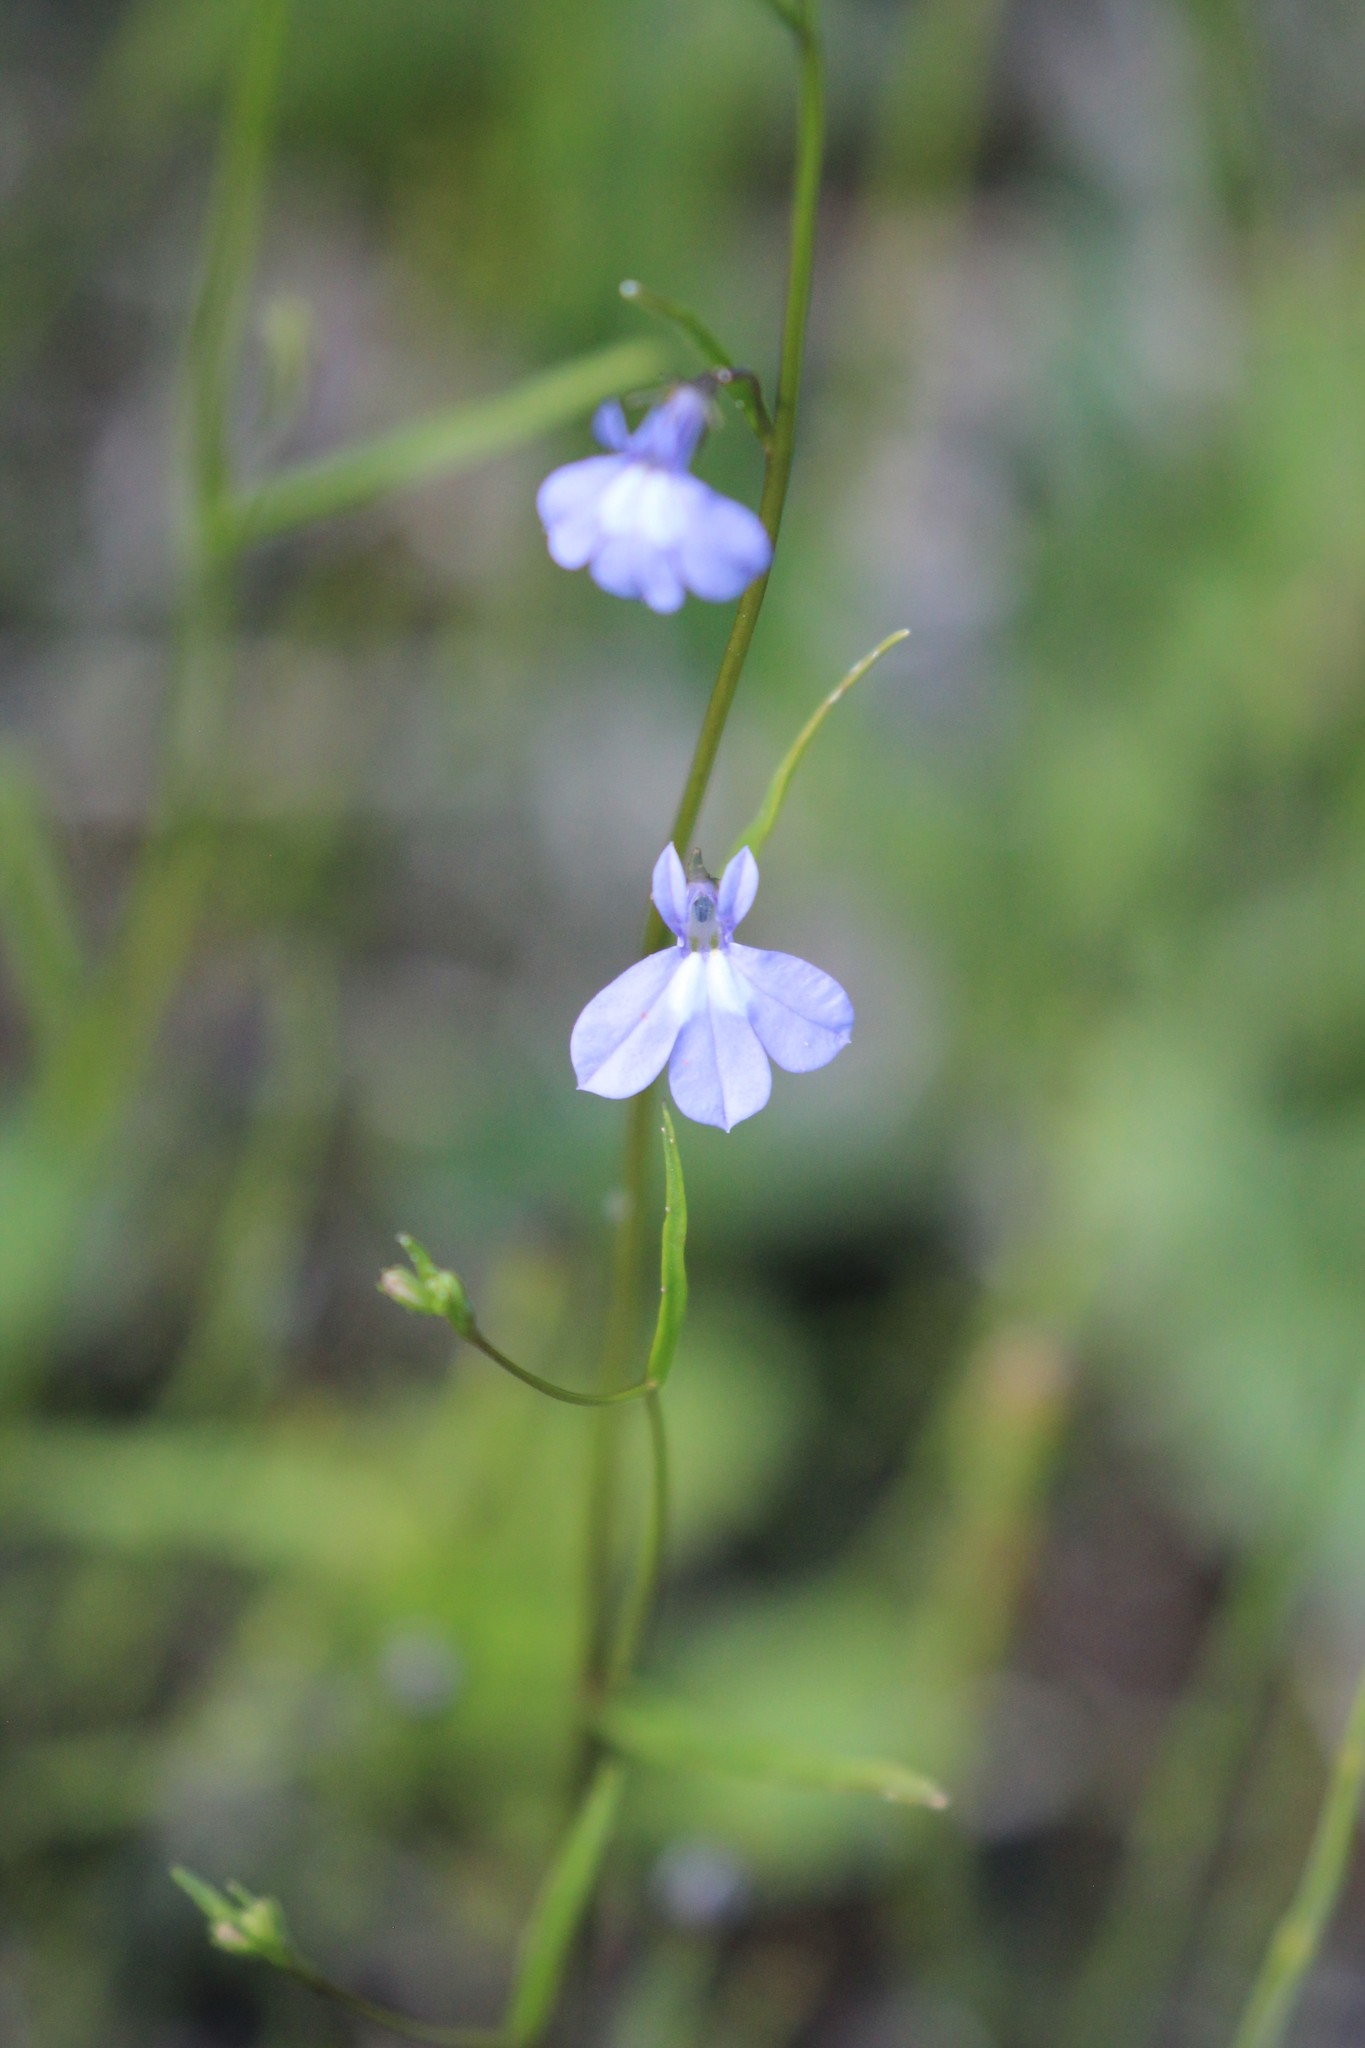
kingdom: Plantae
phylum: Tracheophyta
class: Magnoliopsida
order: Asterales
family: Campanulaceae
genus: Lobelia
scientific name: Lobelia kalmii
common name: Kalm's lobelia
